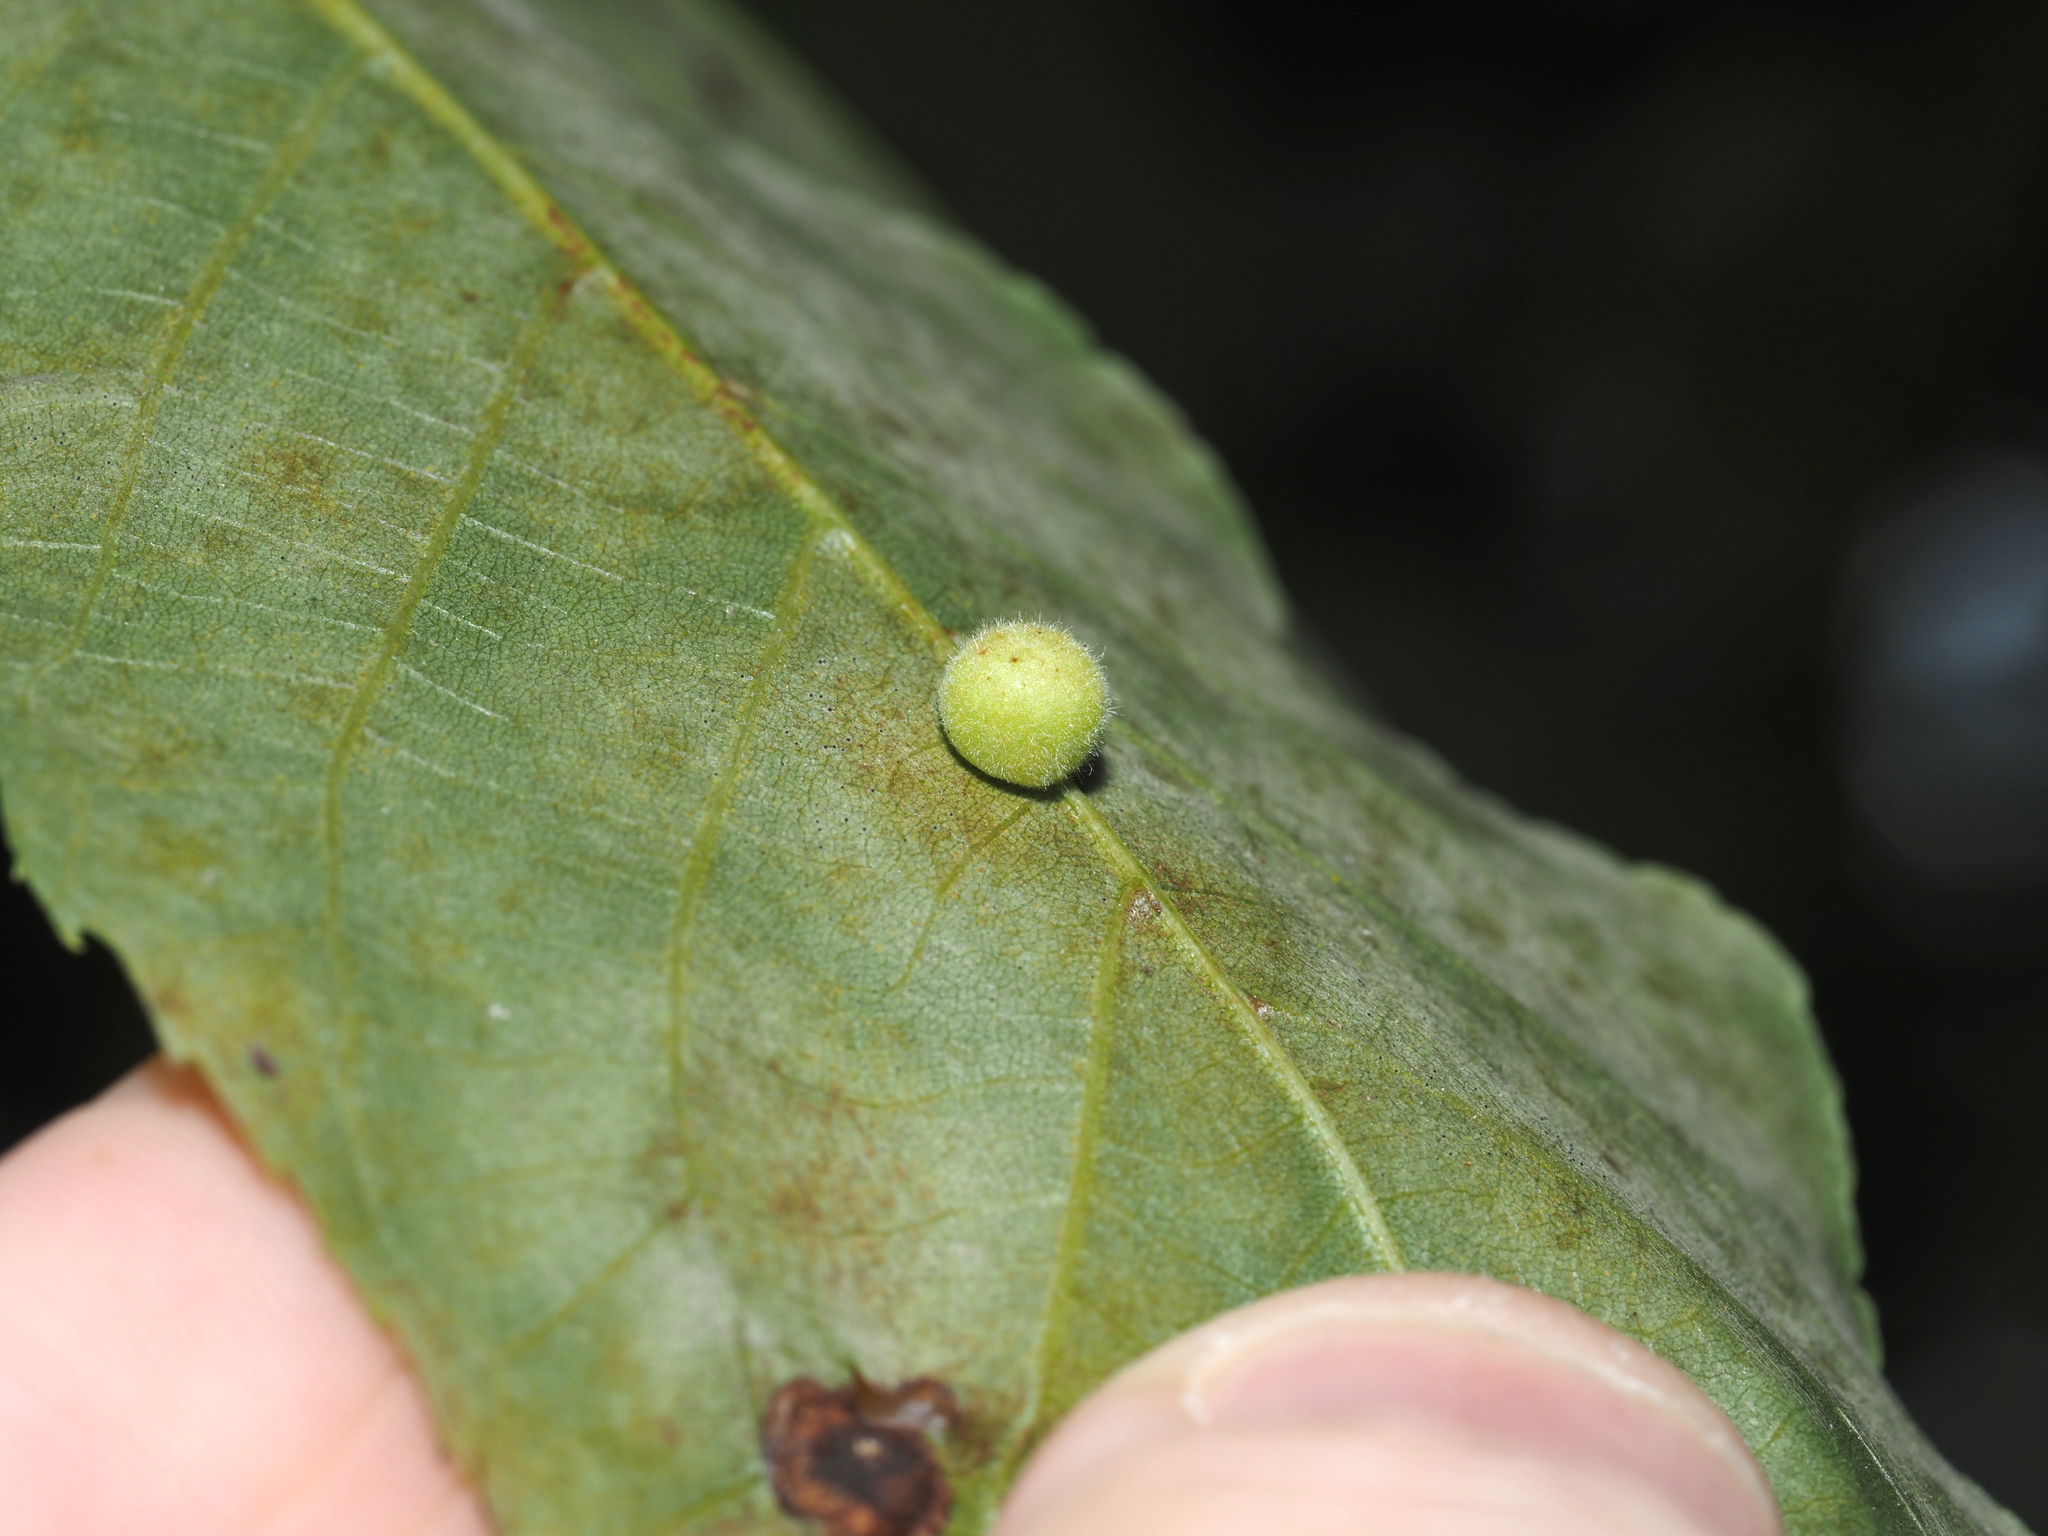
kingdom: Animalia
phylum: Arthropoda
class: Insecta
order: Diptera
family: Cecidomyiidae
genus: Caryomyia
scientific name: Caryomyia persicoides
